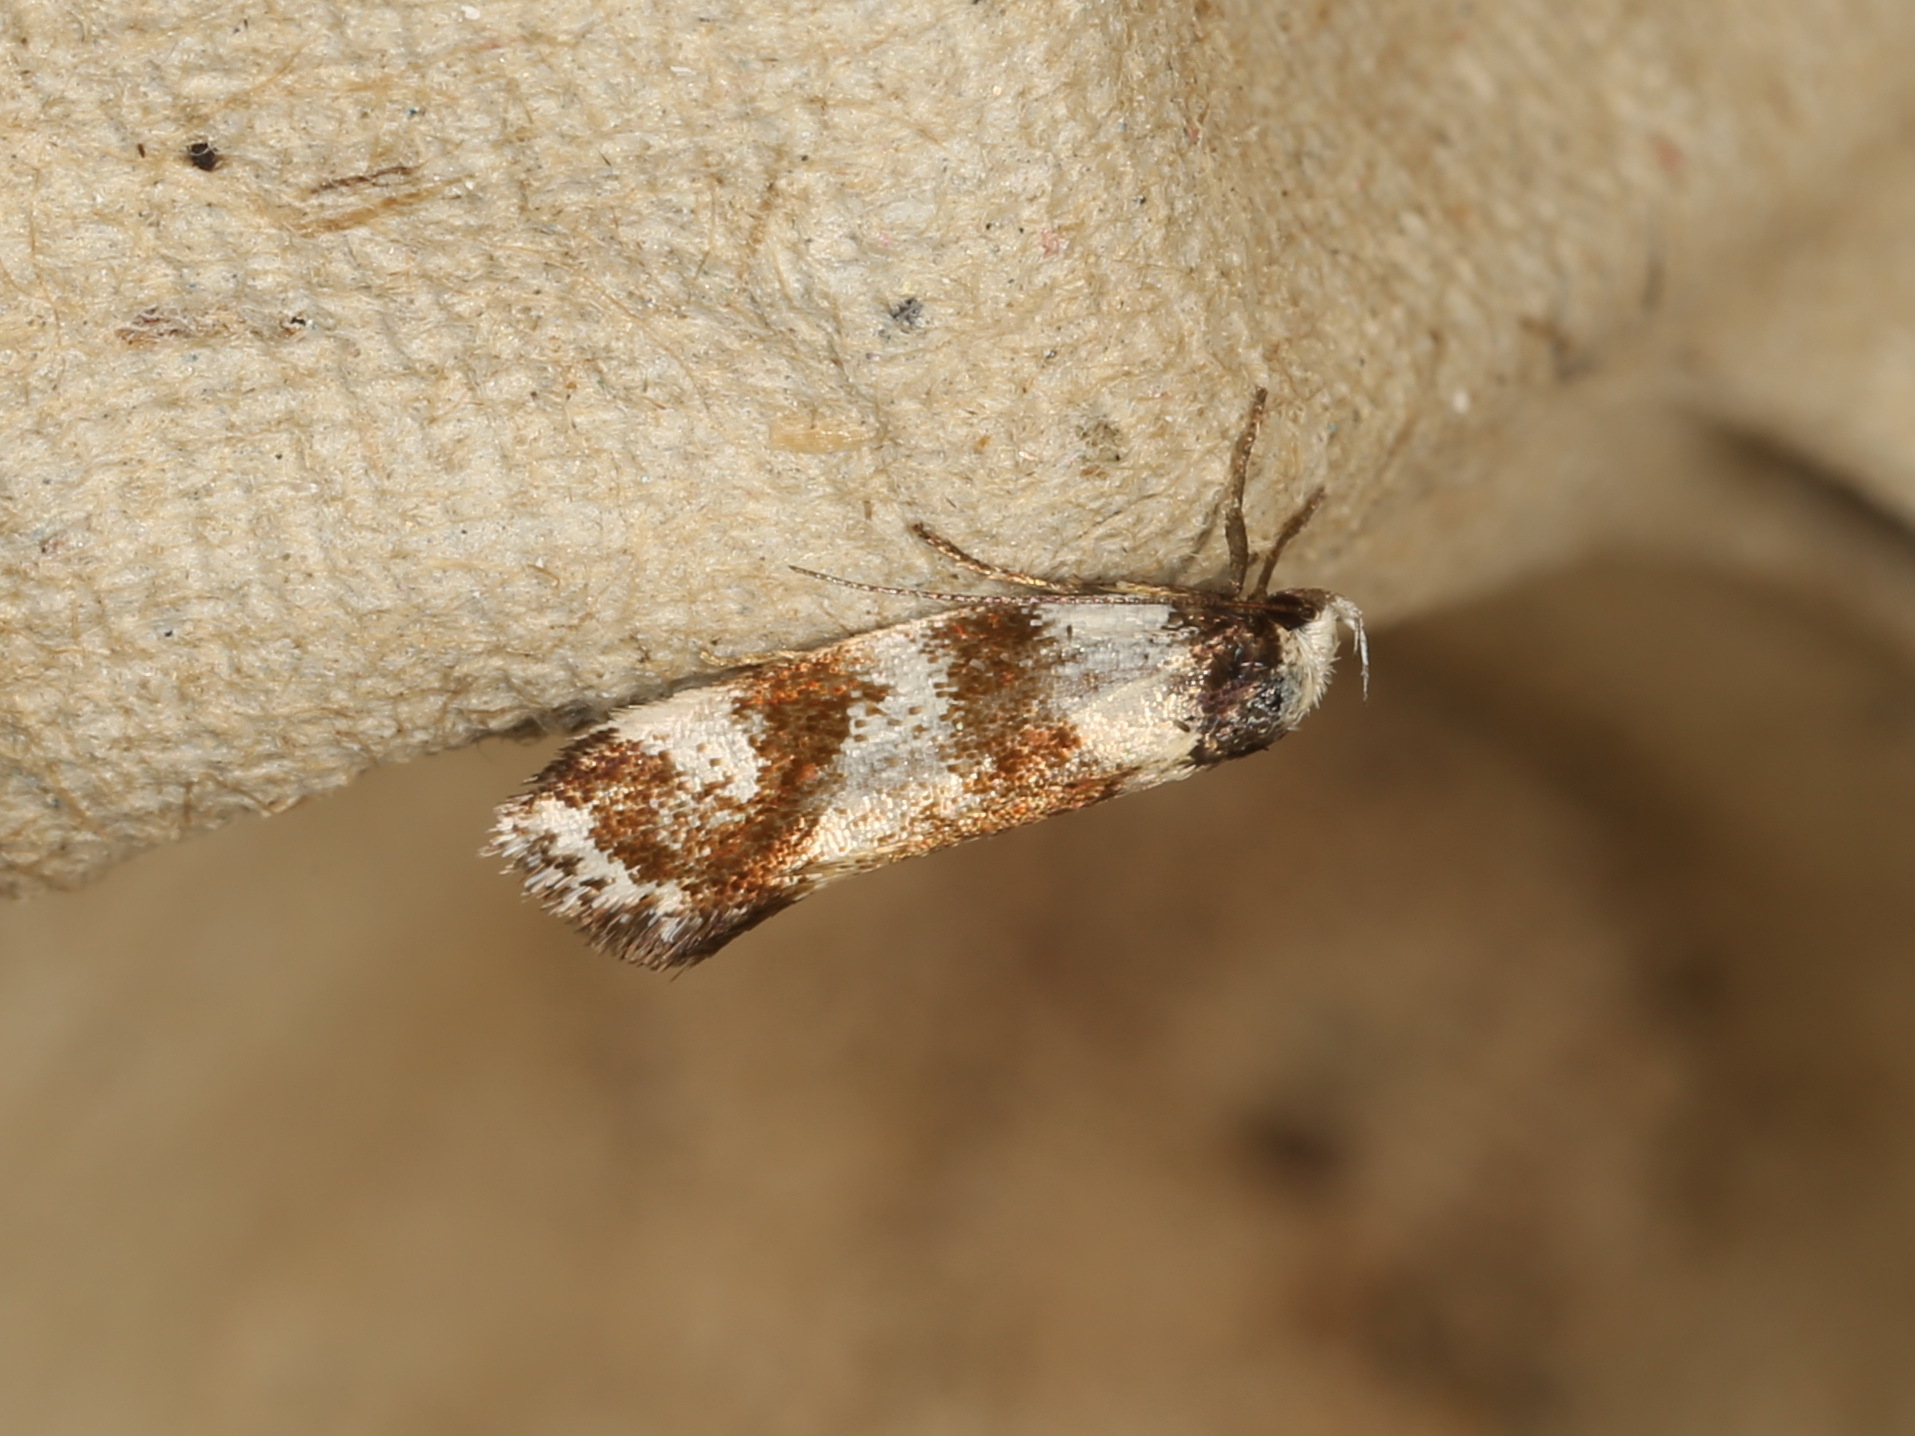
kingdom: Animalia
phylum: Arthropoda
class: Insecta
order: Lepidoptera
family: Oecophoridae
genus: Isomoralla
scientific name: Isomoralla gephyrota
